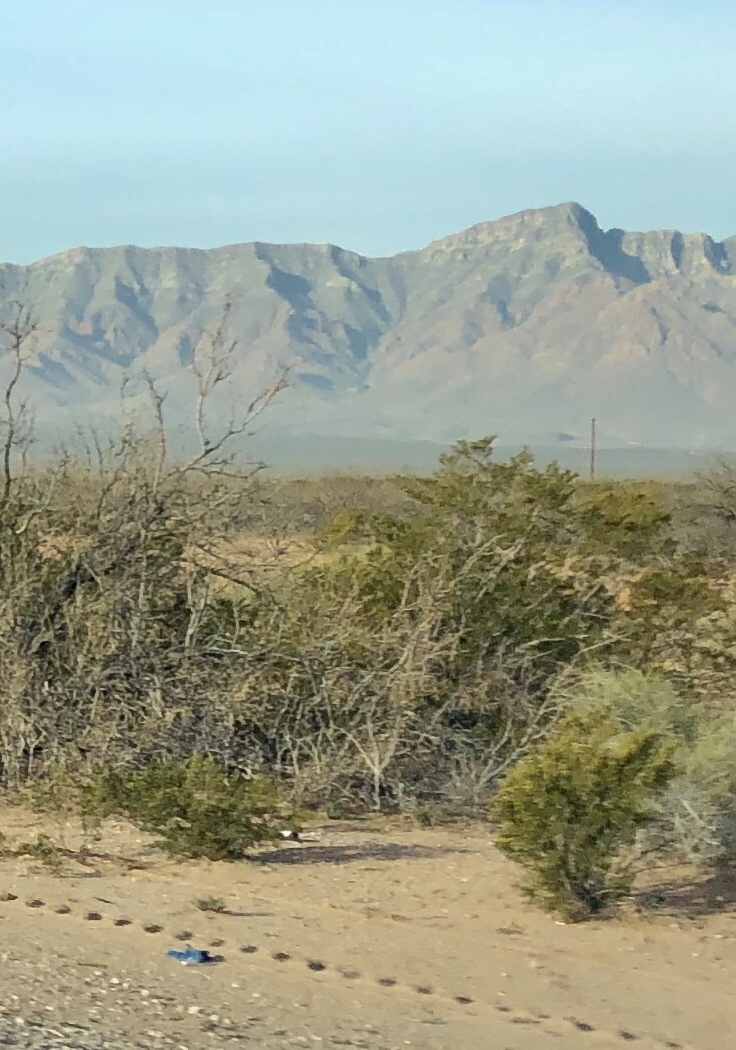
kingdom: Plantae
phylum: Tracheophyta
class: Magnoliopsida
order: Zygophyllales
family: Zygophyllaceae
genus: Larrea
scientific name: Larrea tridentata
